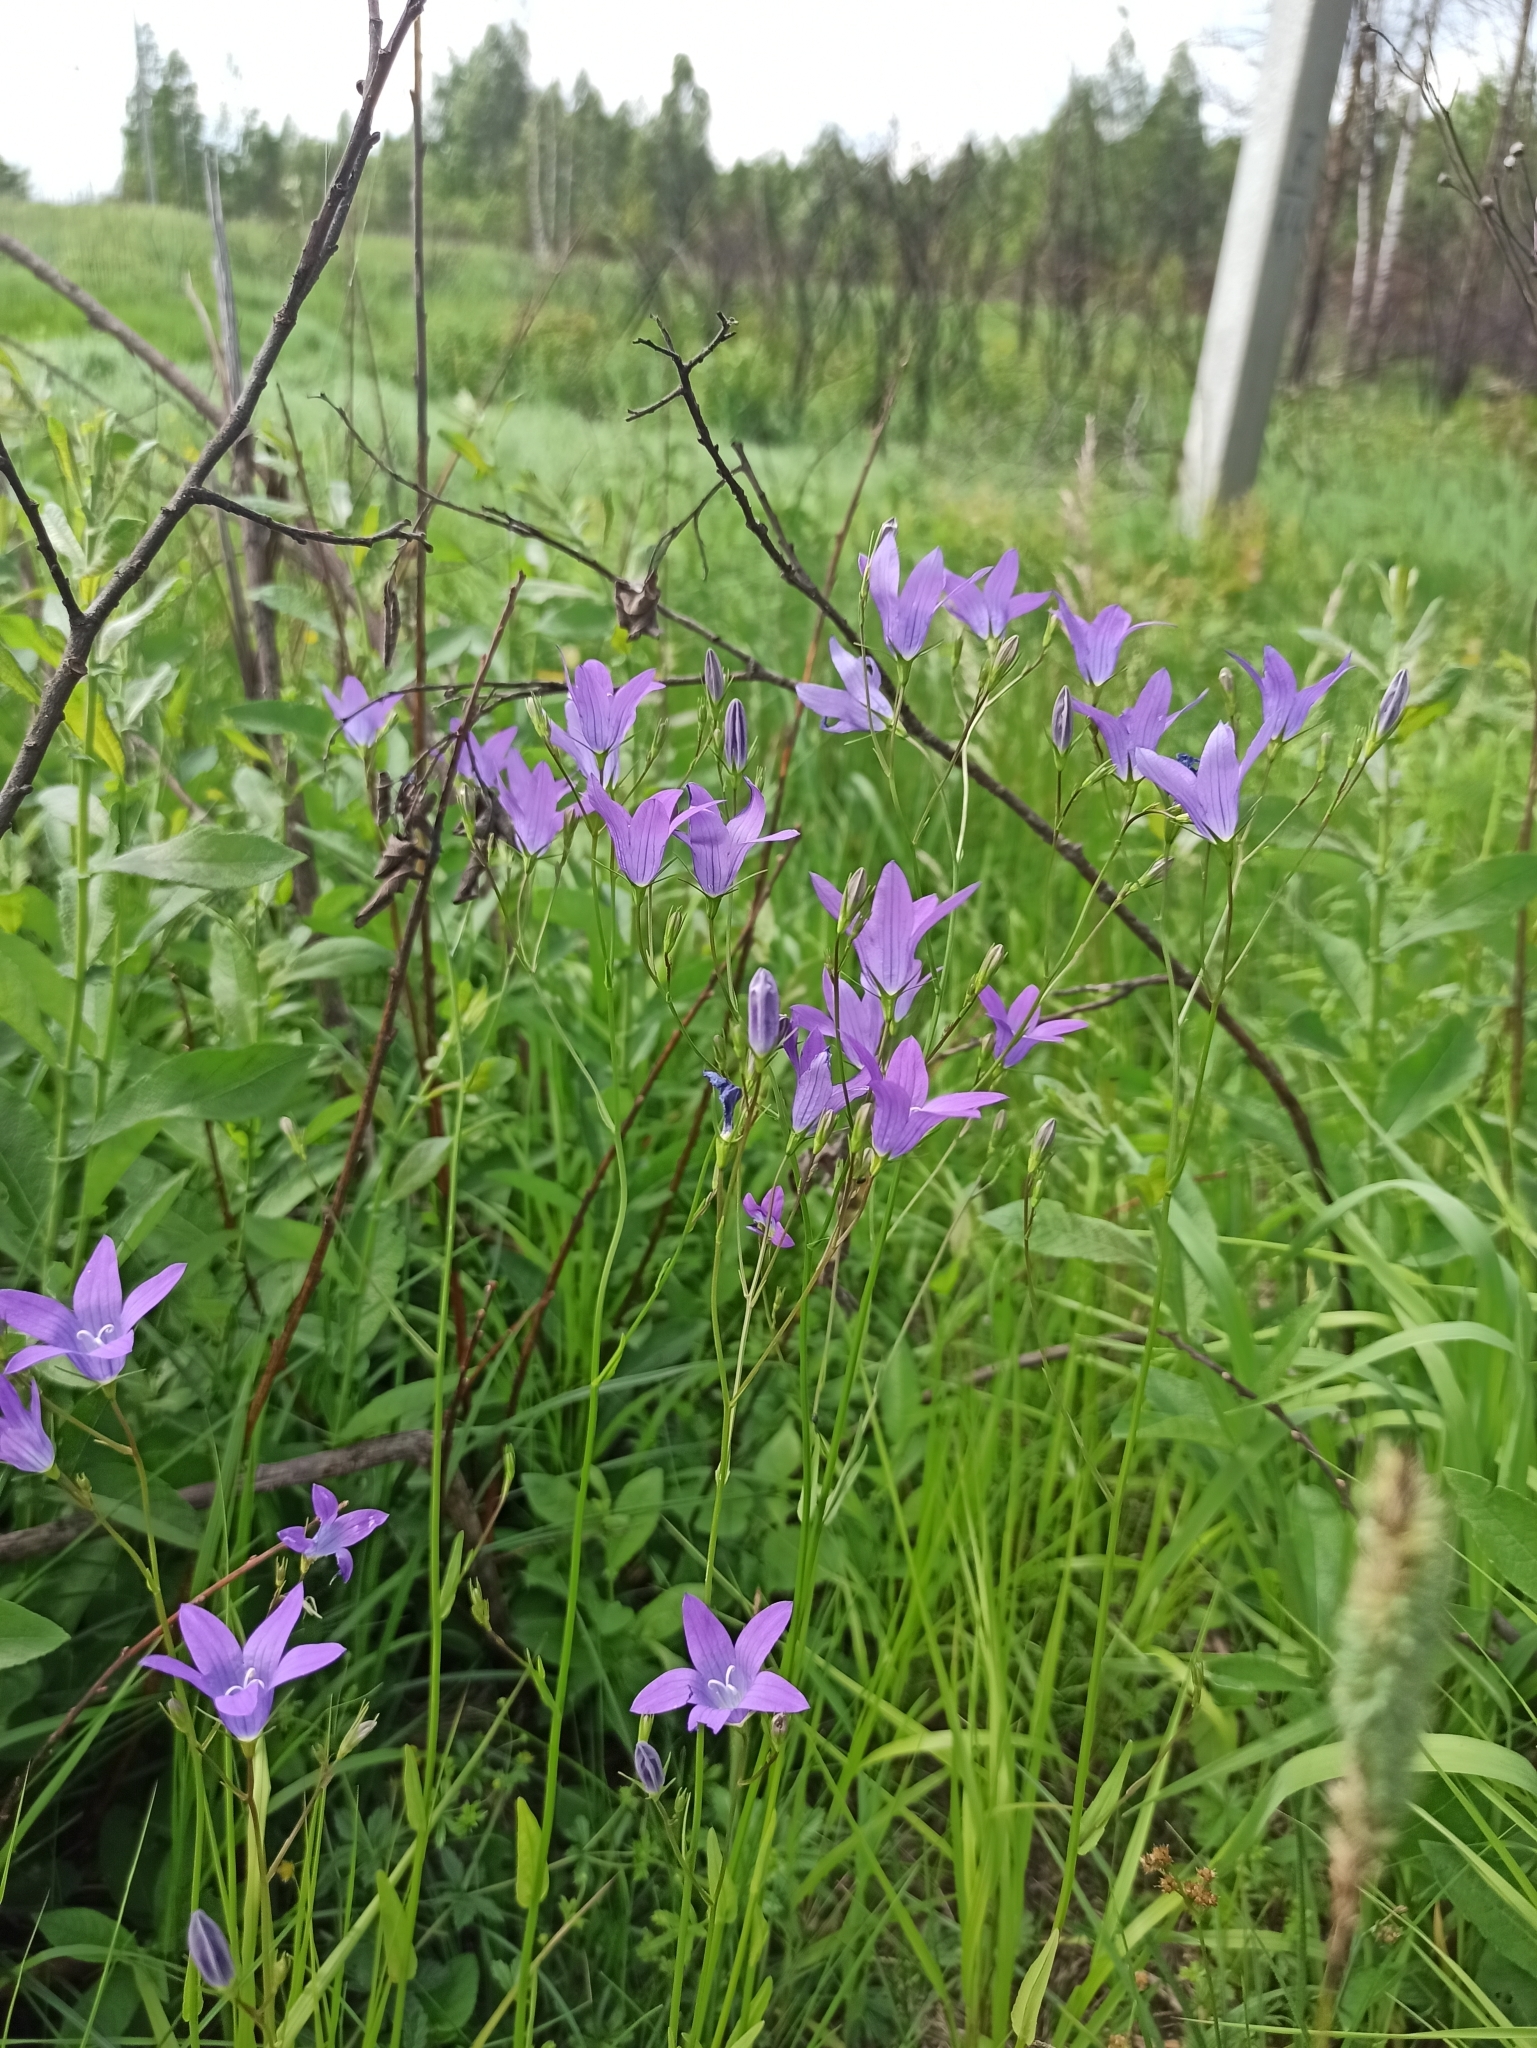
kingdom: Plantae
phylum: Tracheophyta
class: Magnoliopsida
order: Asterales
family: Campanulaceae
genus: Campanula
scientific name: Campanula patula
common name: Spreading bellflower
